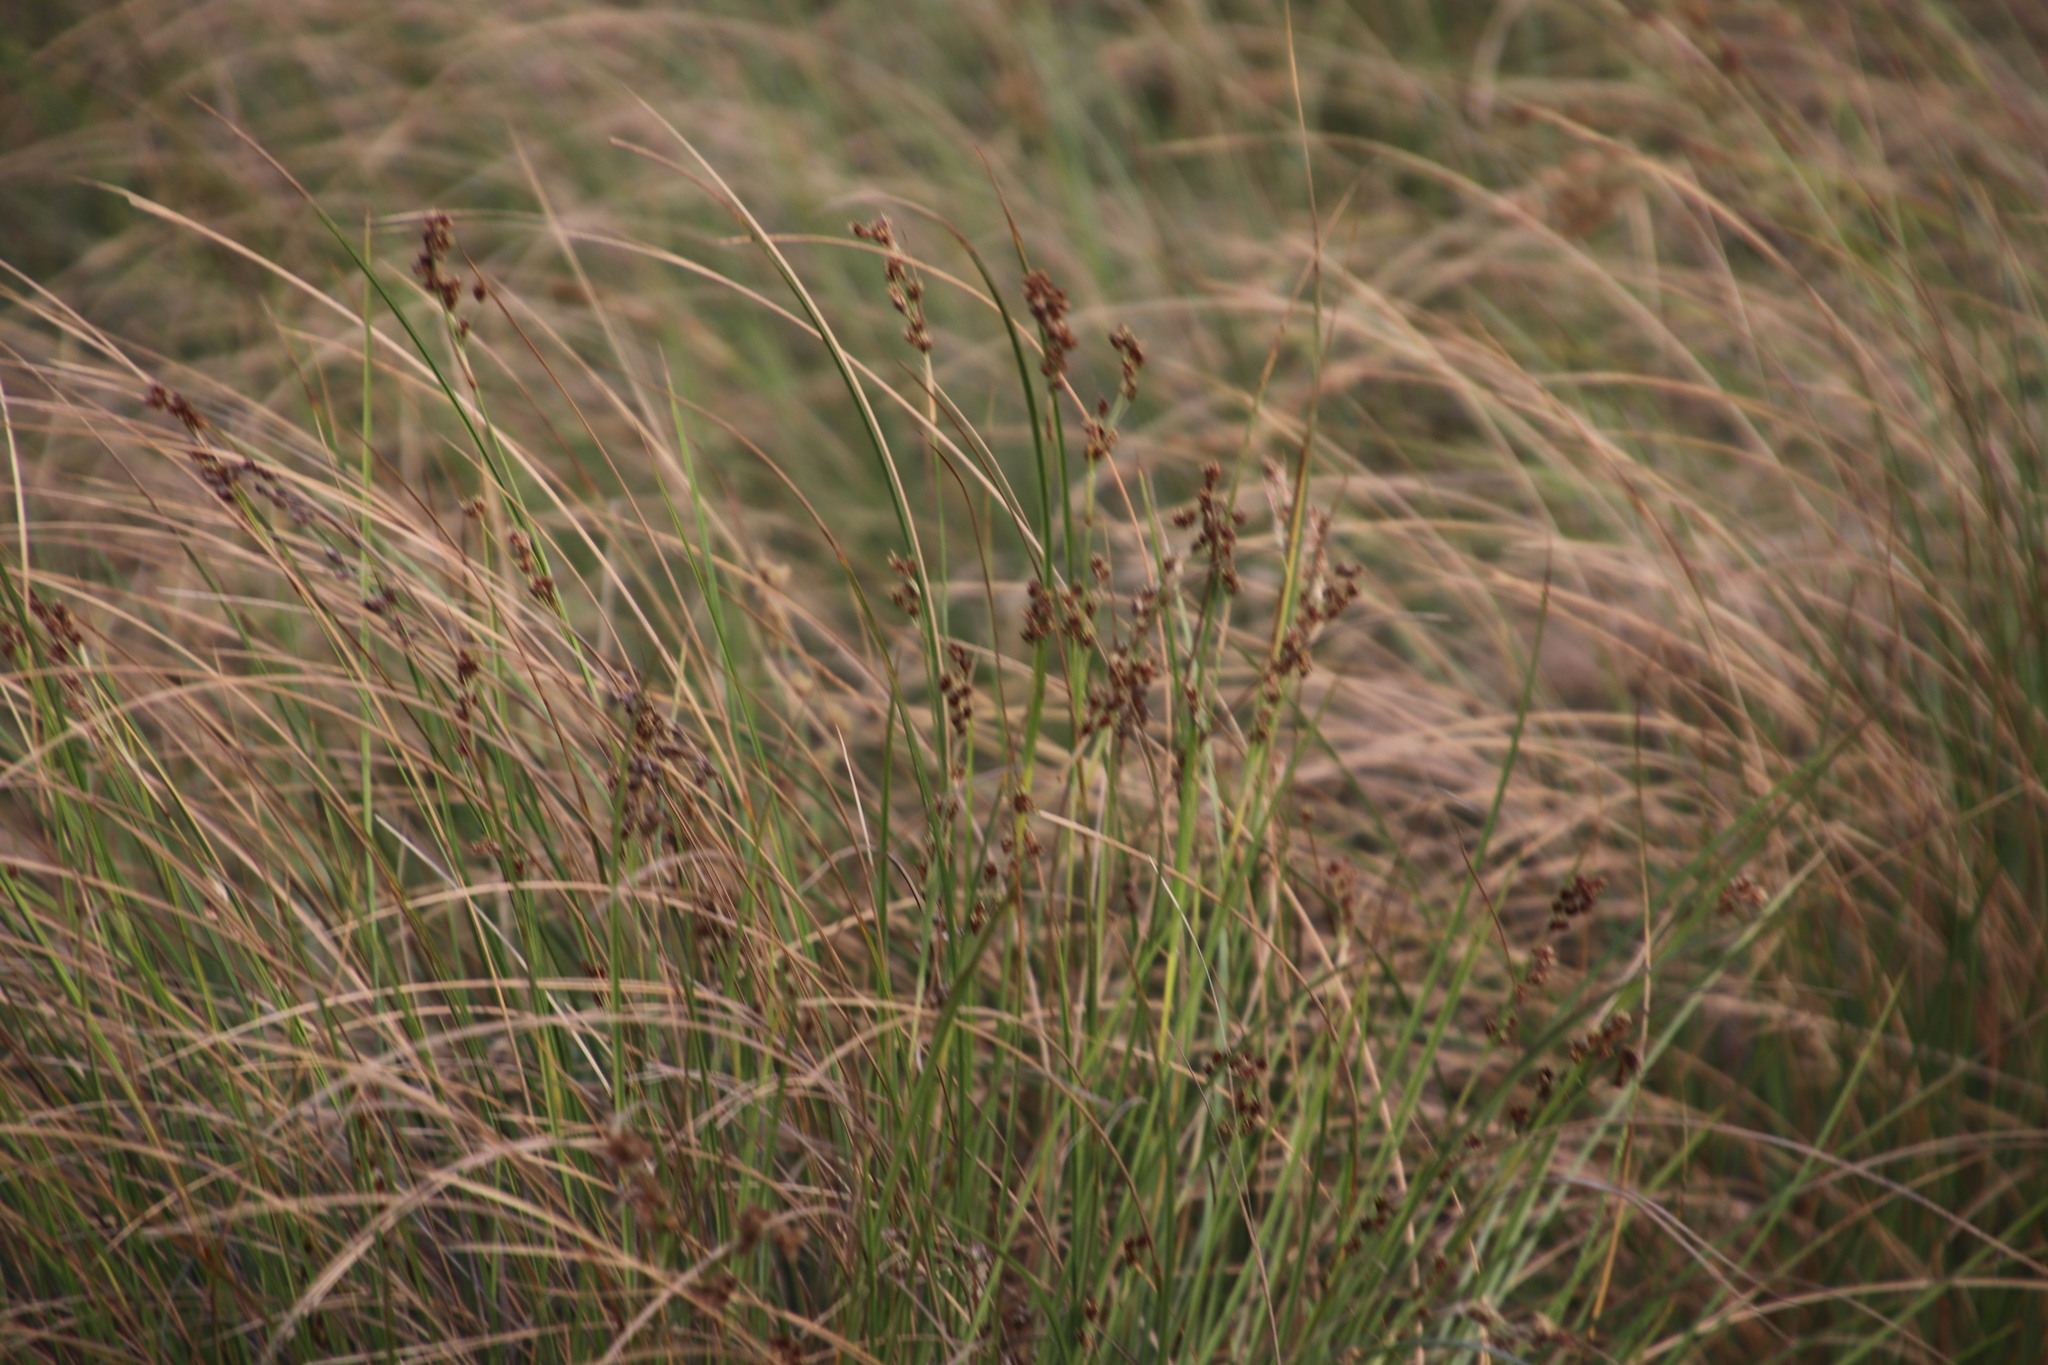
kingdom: Plantae
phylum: Tracheophyta
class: Liliopsida
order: Poales
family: Cyperaceae
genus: Coleochloa
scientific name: Coleochloa setifera
